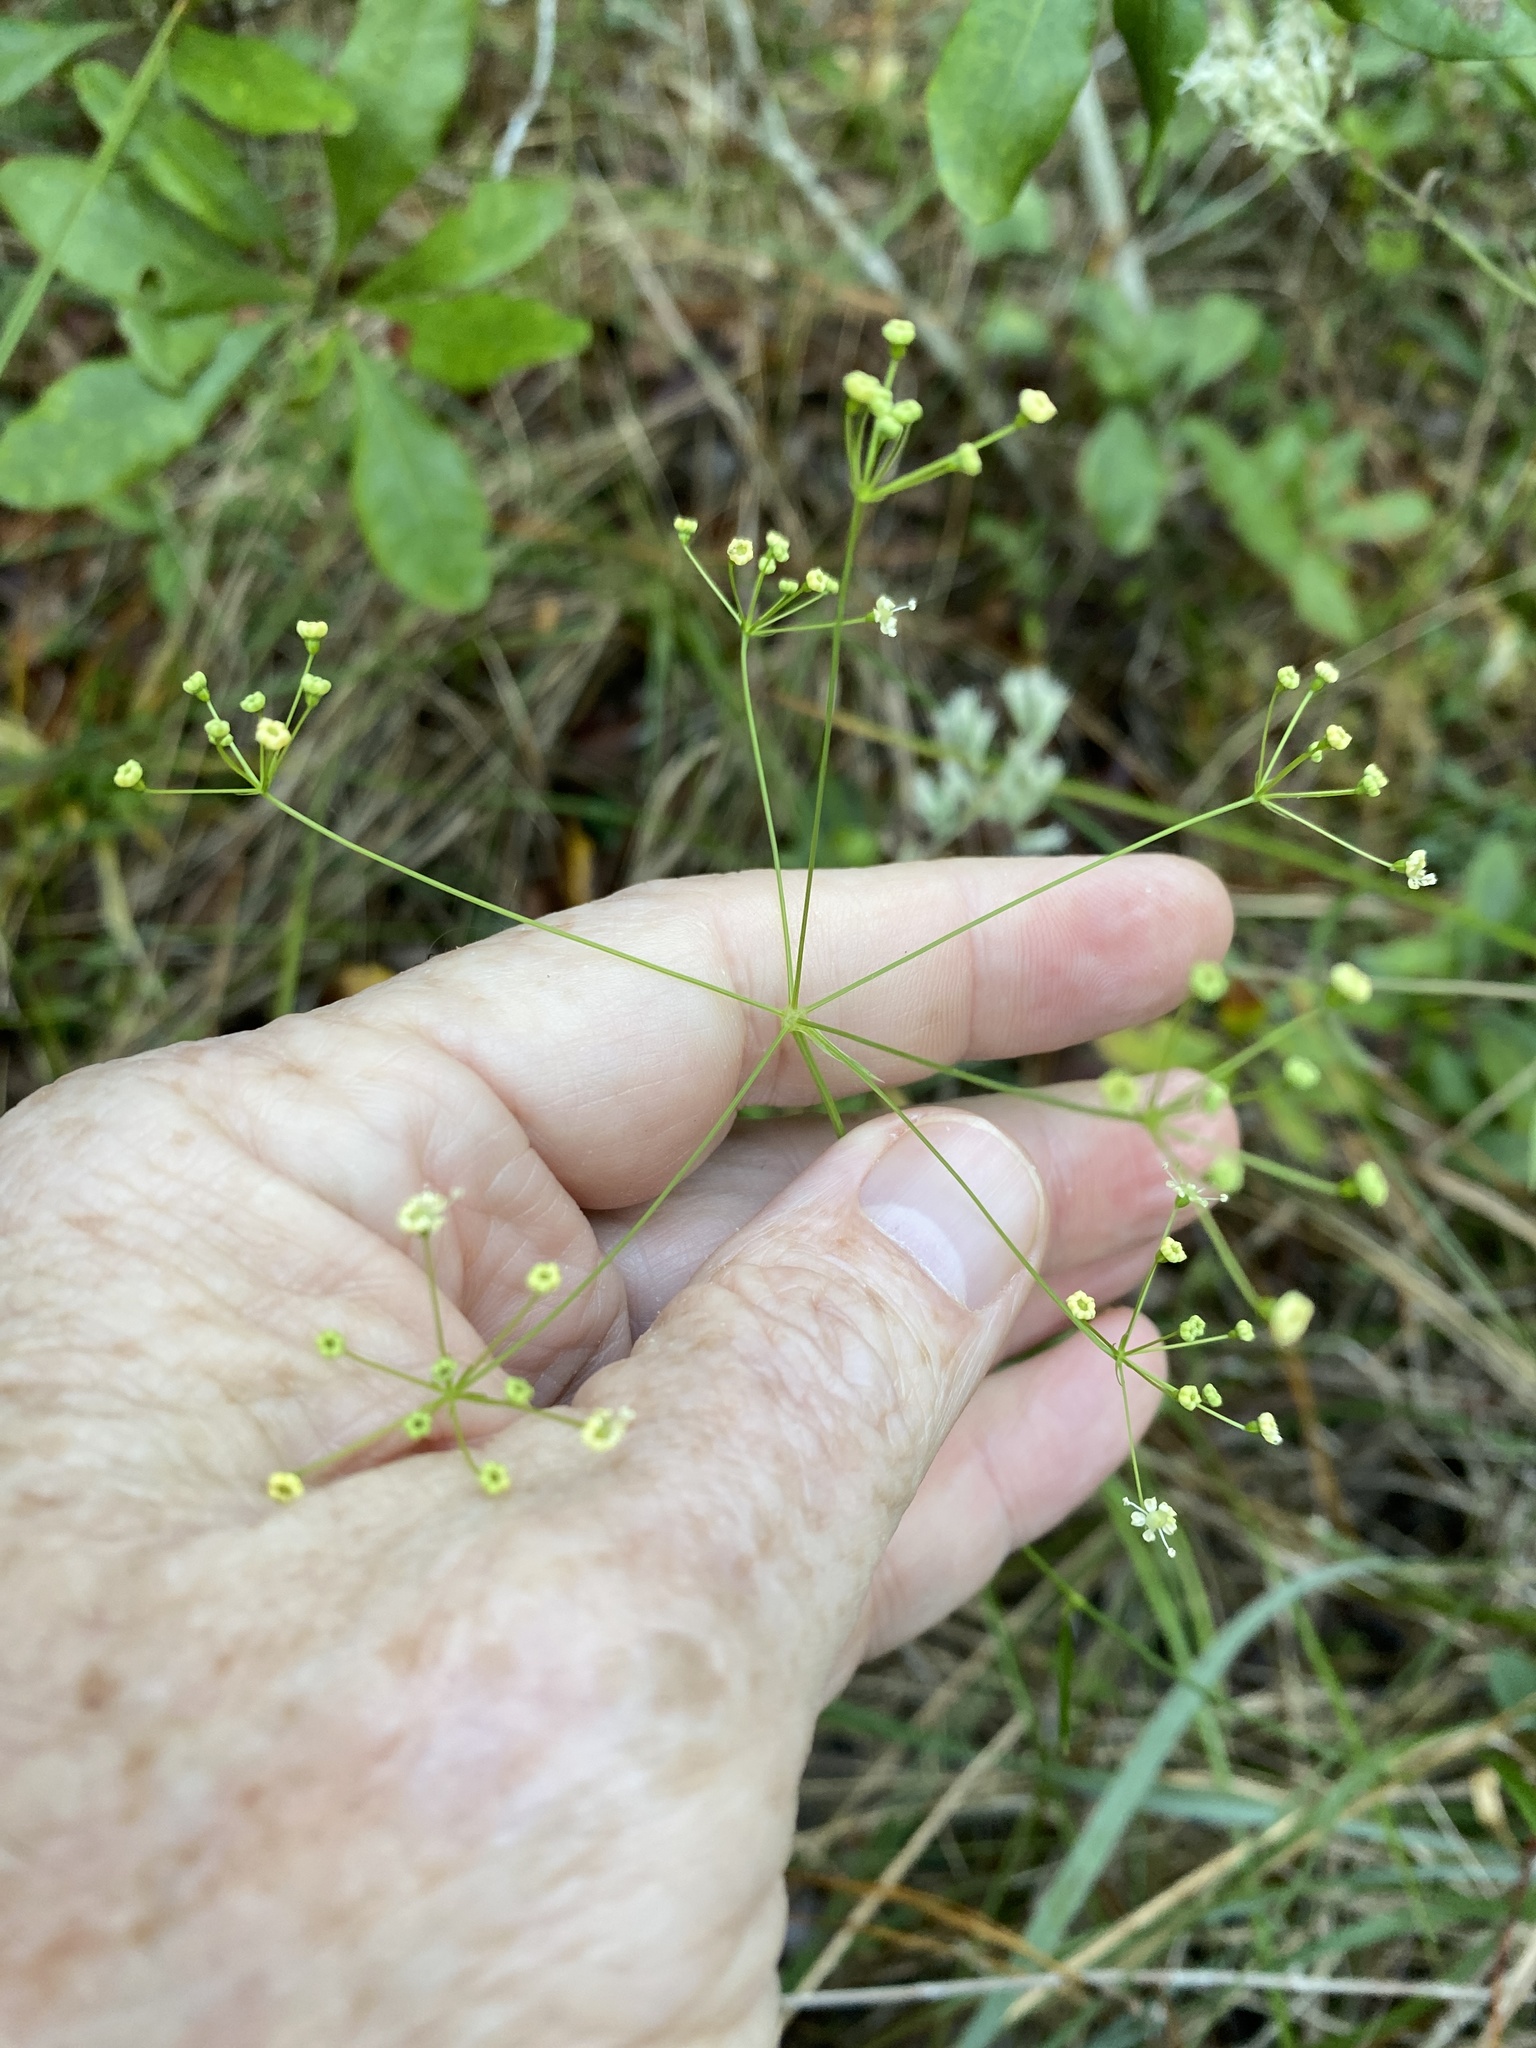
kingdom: Plantae
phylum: Tracheophyta
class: Magnoliopsida
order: Apiales
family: Apiaceae
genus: Oxypolis
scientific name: Oxypolis ternata
